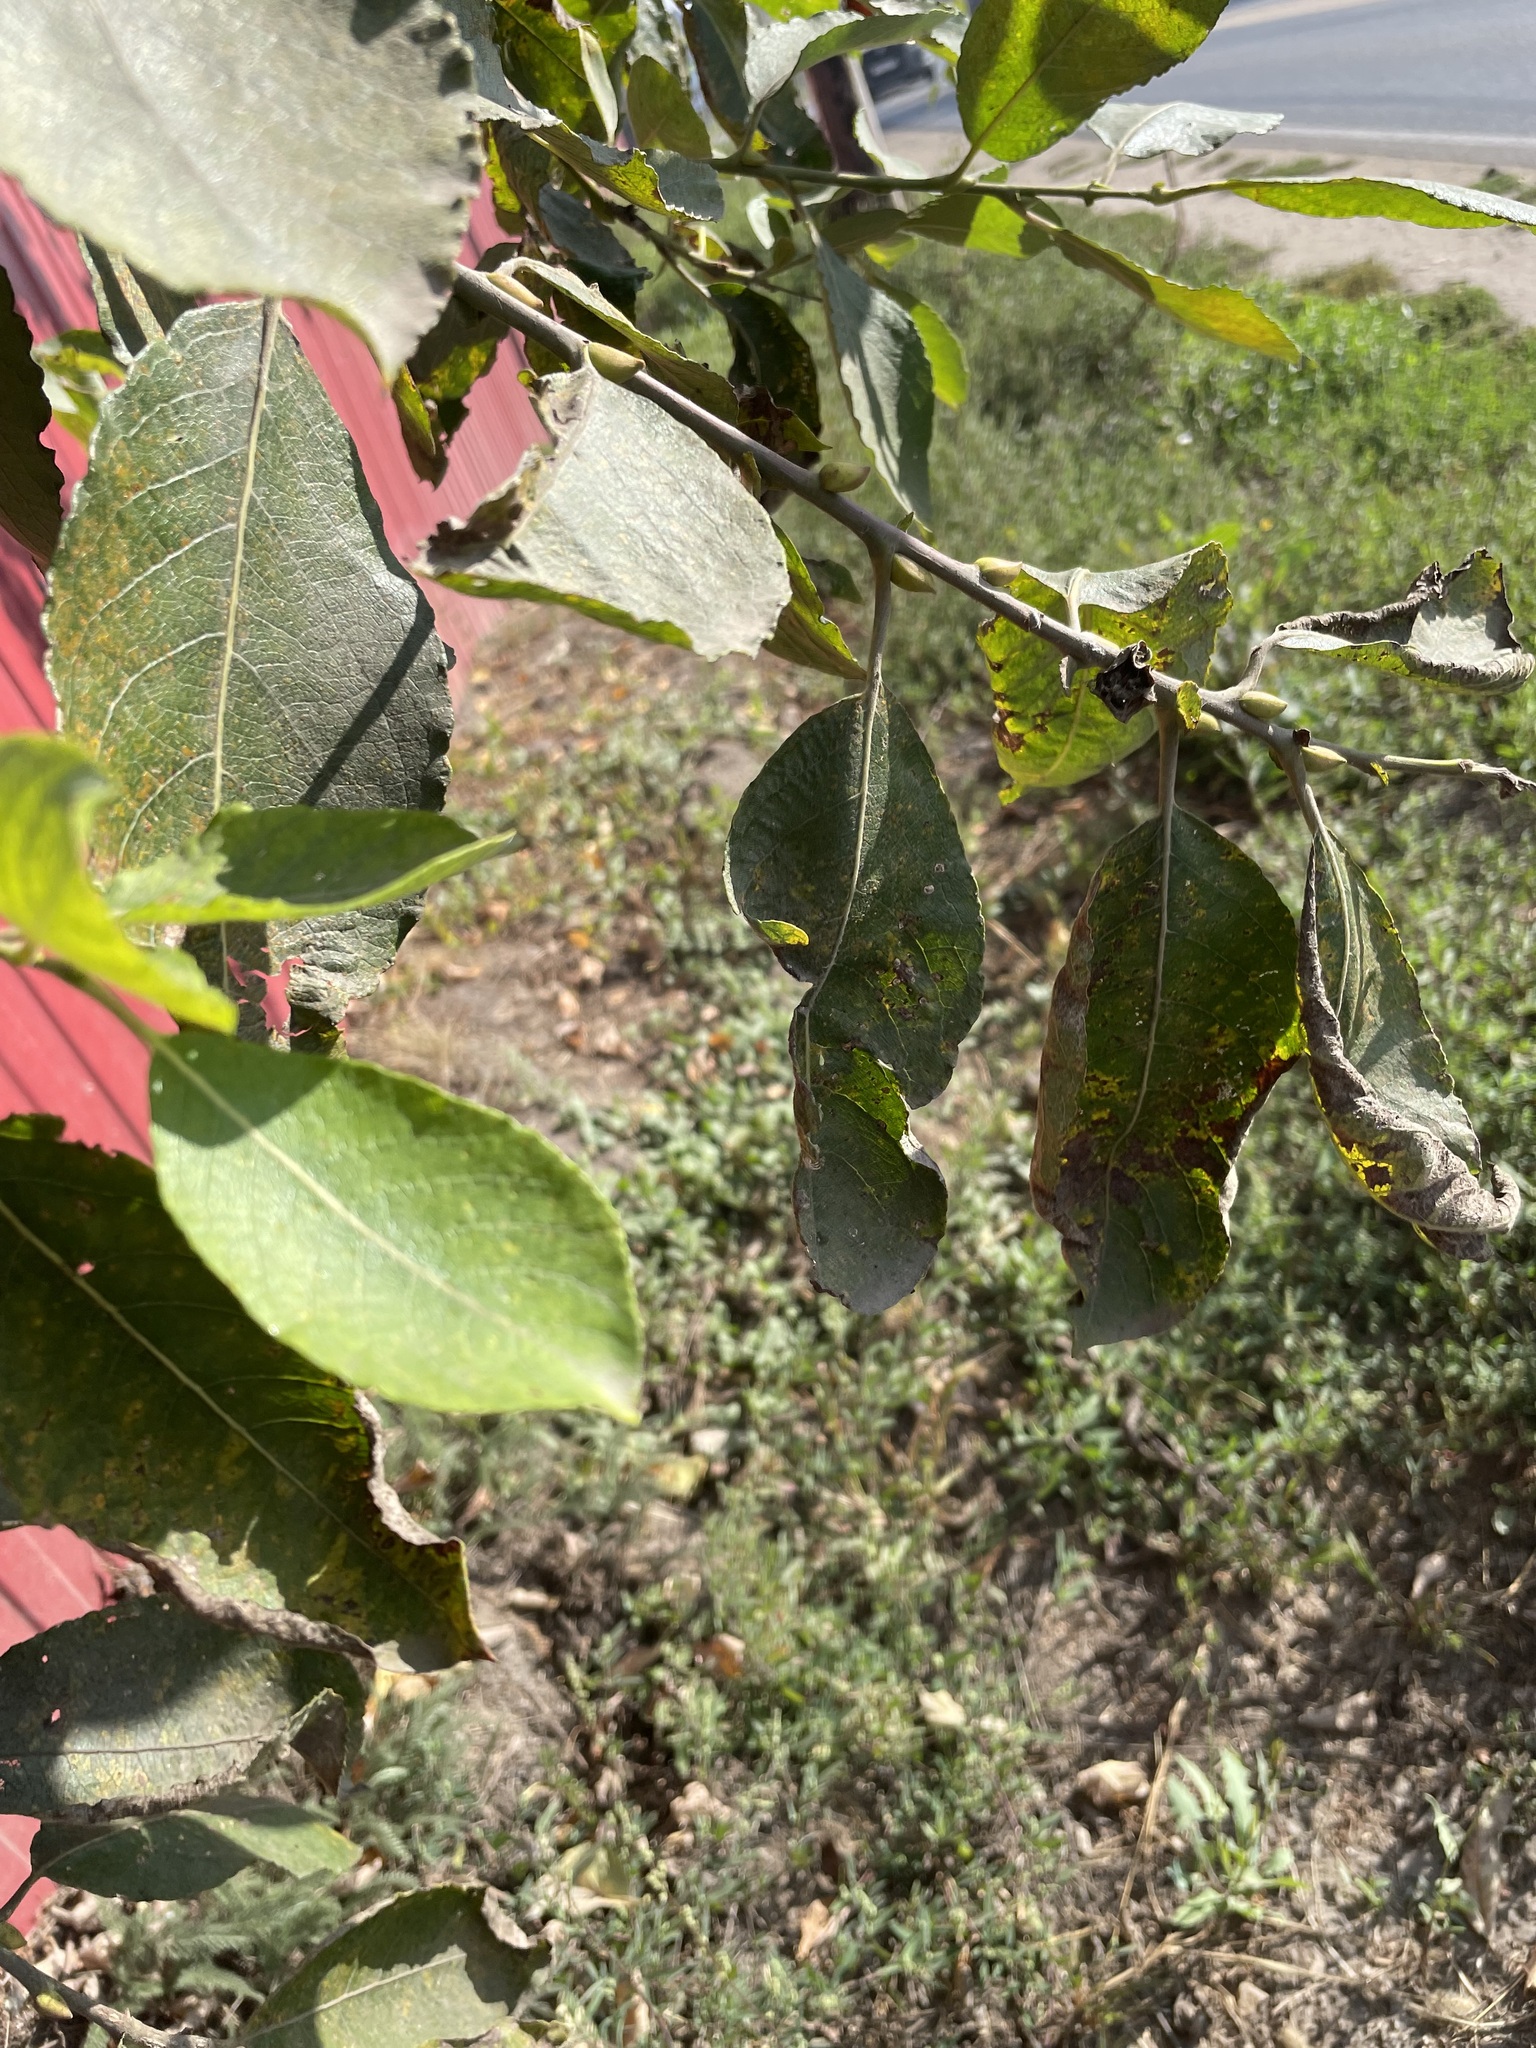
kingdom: Plantae
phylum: Tracheophyta
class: Magnoliopsida
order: Malpighiales
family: Salicaceae
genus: Salix
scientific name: Salix caprea
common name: Goat willow
